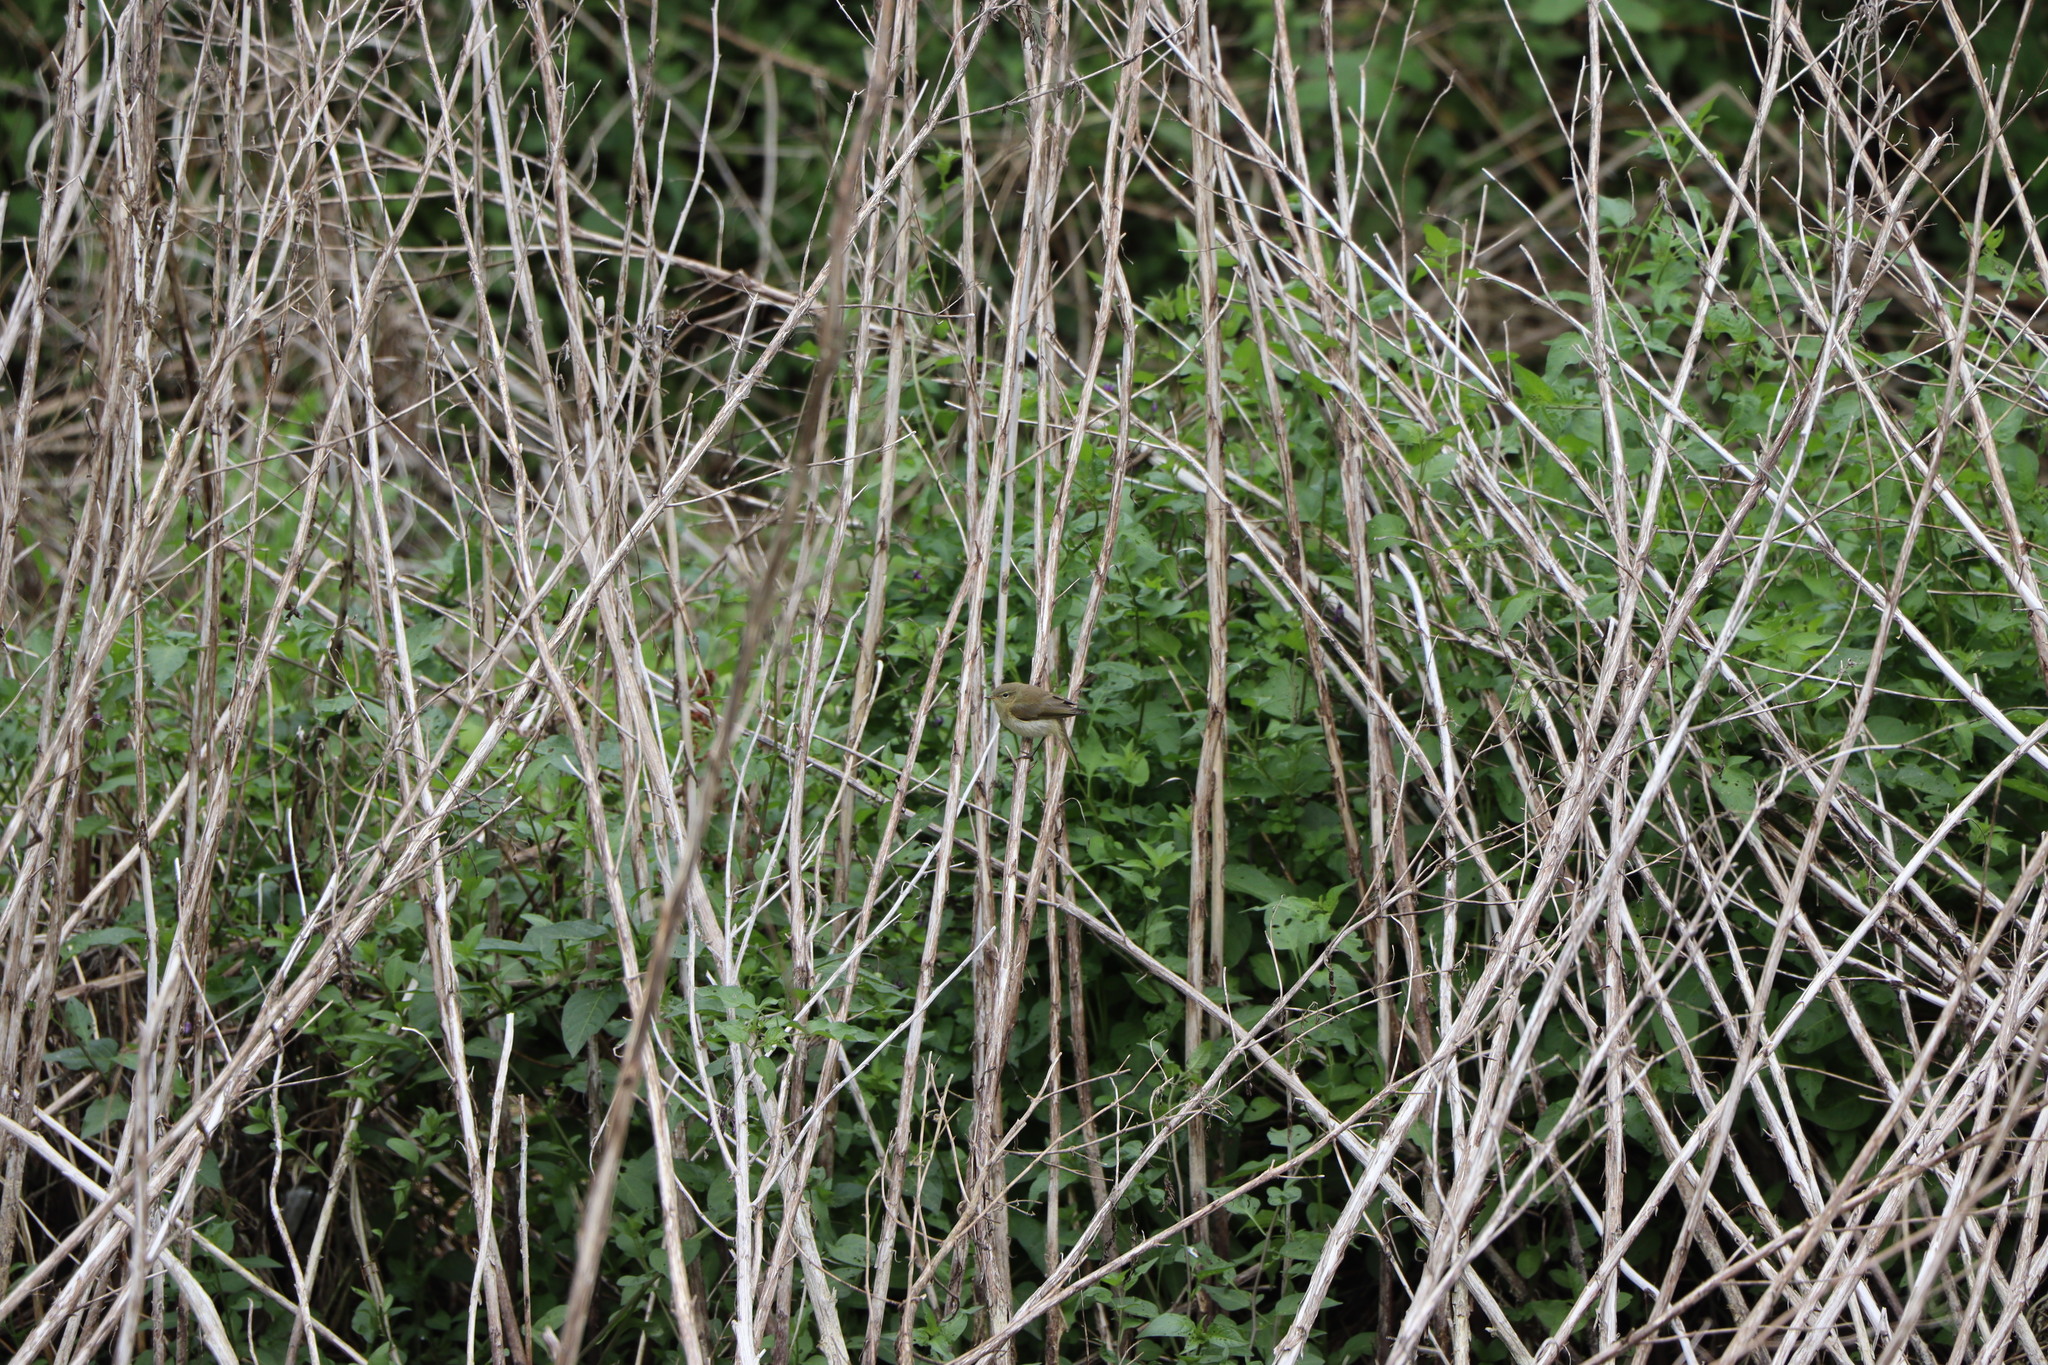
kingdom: Animalia
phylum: Chordata
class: Aves
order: Passeriformes
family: Phylloscopidae
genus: Phylloscopus
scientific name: Phylloscopus collybita
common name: Common chiffchaff
